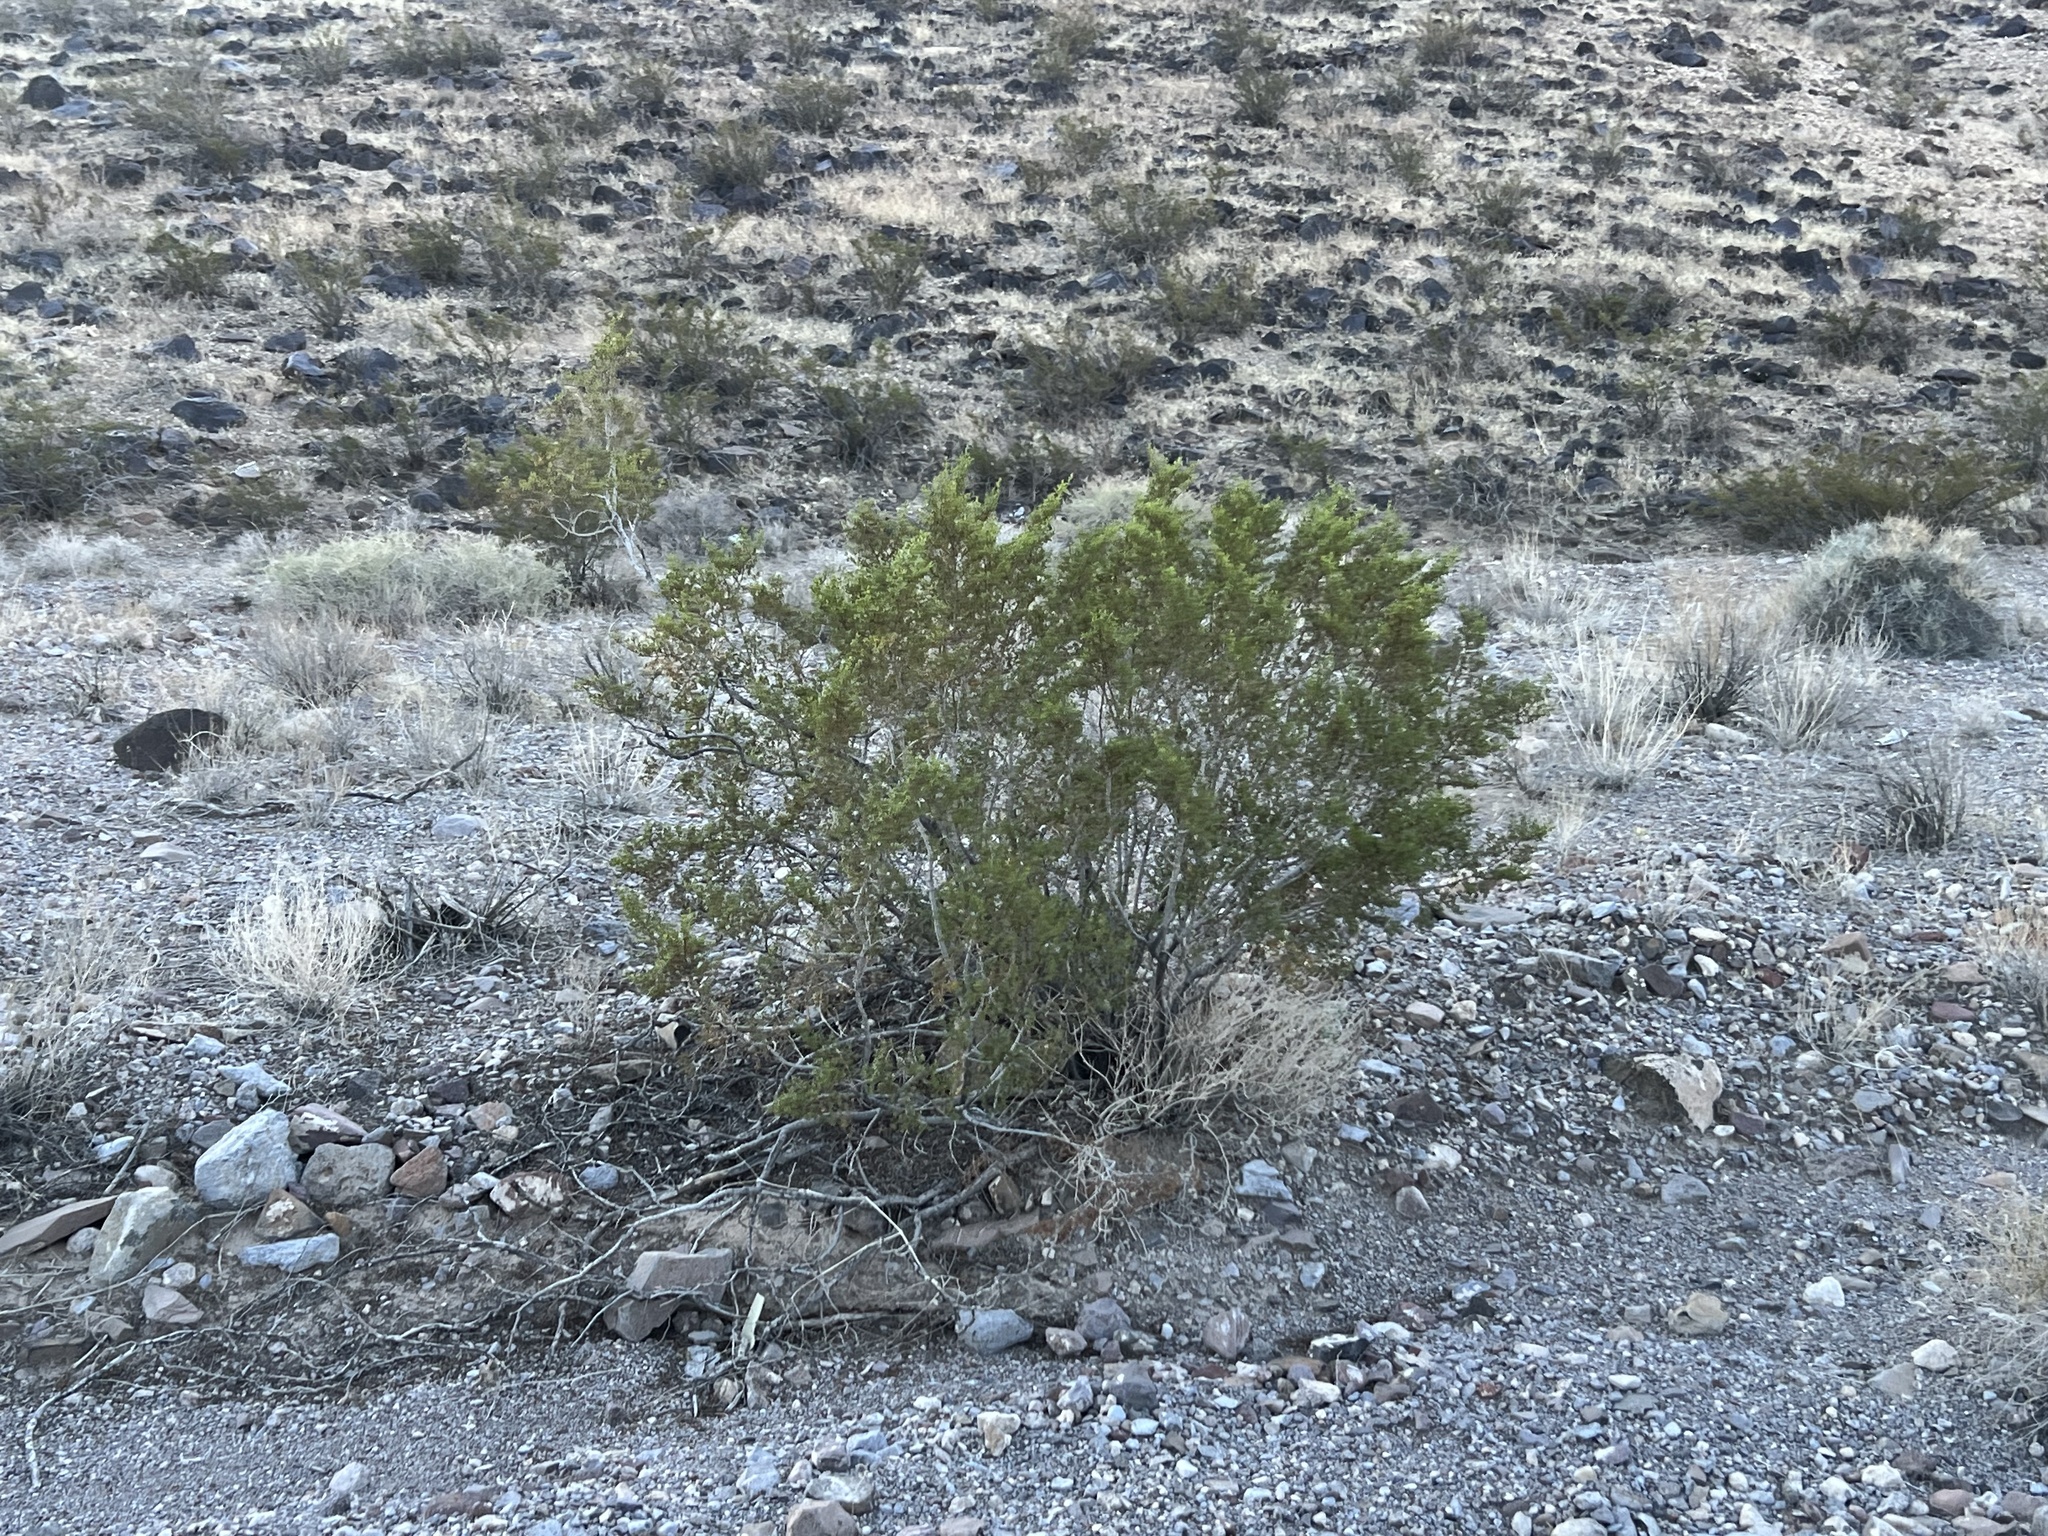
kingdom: Plantae
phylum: Tracheophyta
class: Magnoliopsida
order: Zygophyllales
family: Zygophyllaceae
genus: Larrea
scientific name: Larrea tridentata
